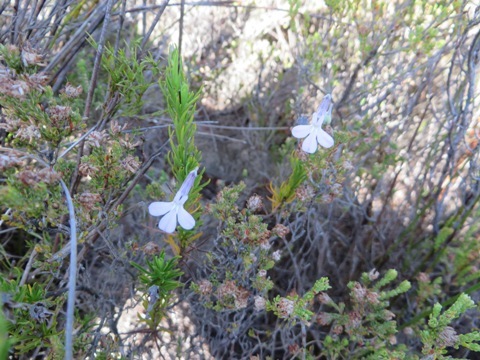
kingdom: Plantae
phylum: Tracheophyta
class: Magnoliopsida
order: Asterales
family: Campanulaceae
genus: Lobelia
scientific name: Lobelia pinifolia
